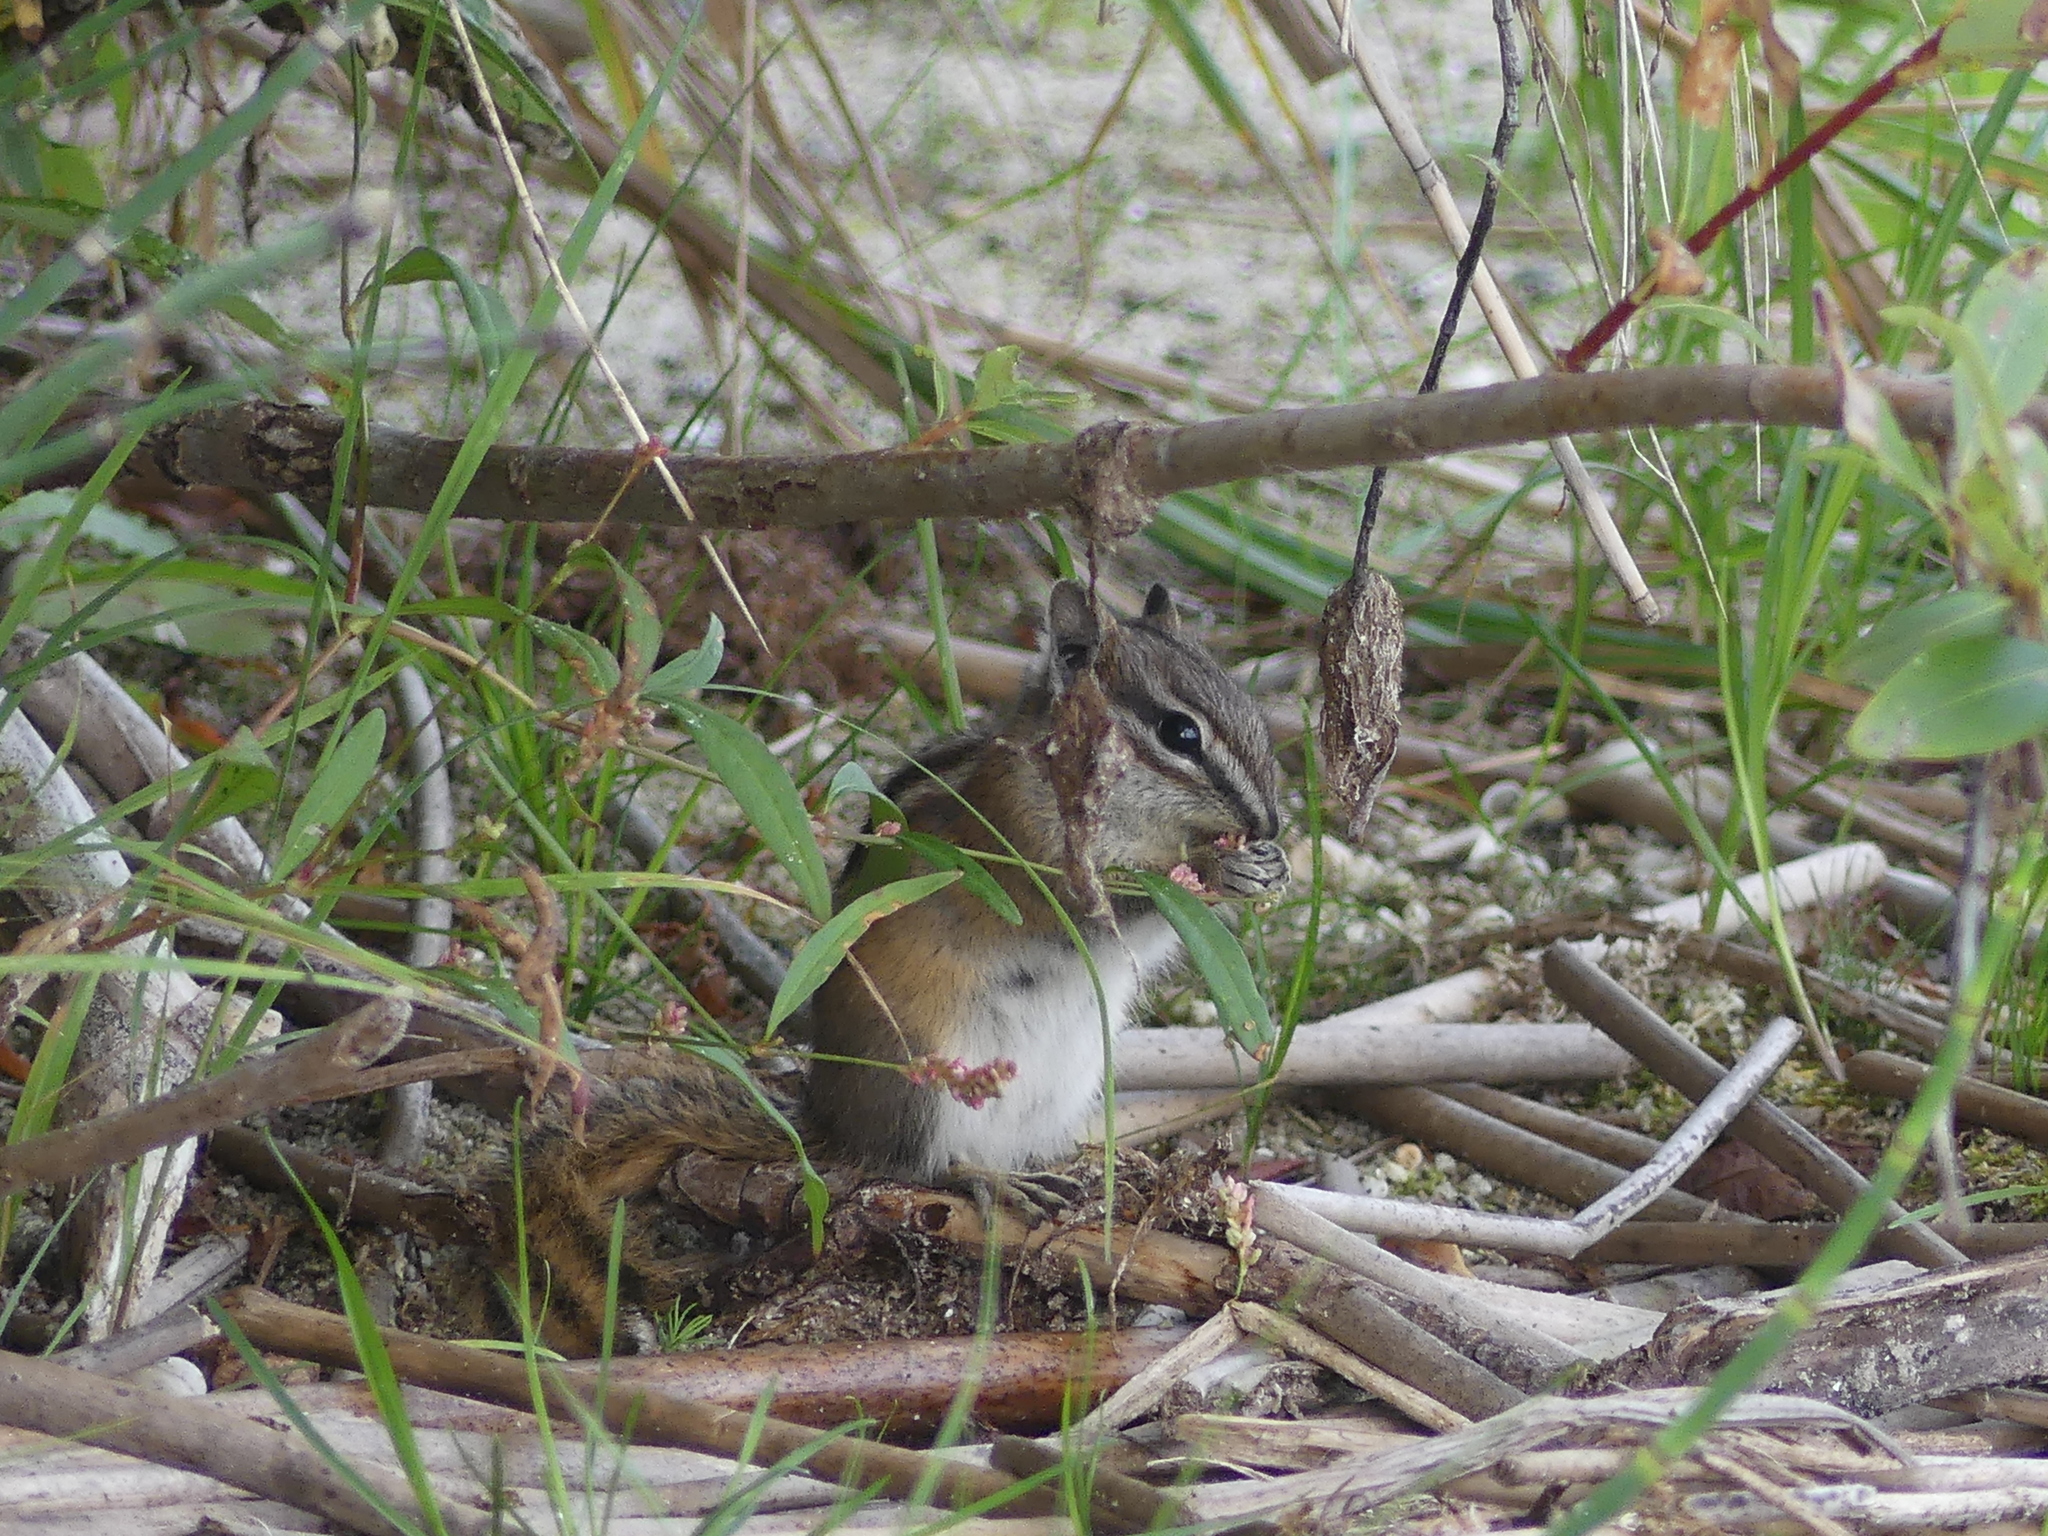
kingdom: Animalia
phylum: Chordata
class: Mammalia
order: Rodentia
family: Sciuridae
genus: Tamias
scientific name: Tamias minimus
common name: Least chipmunk
